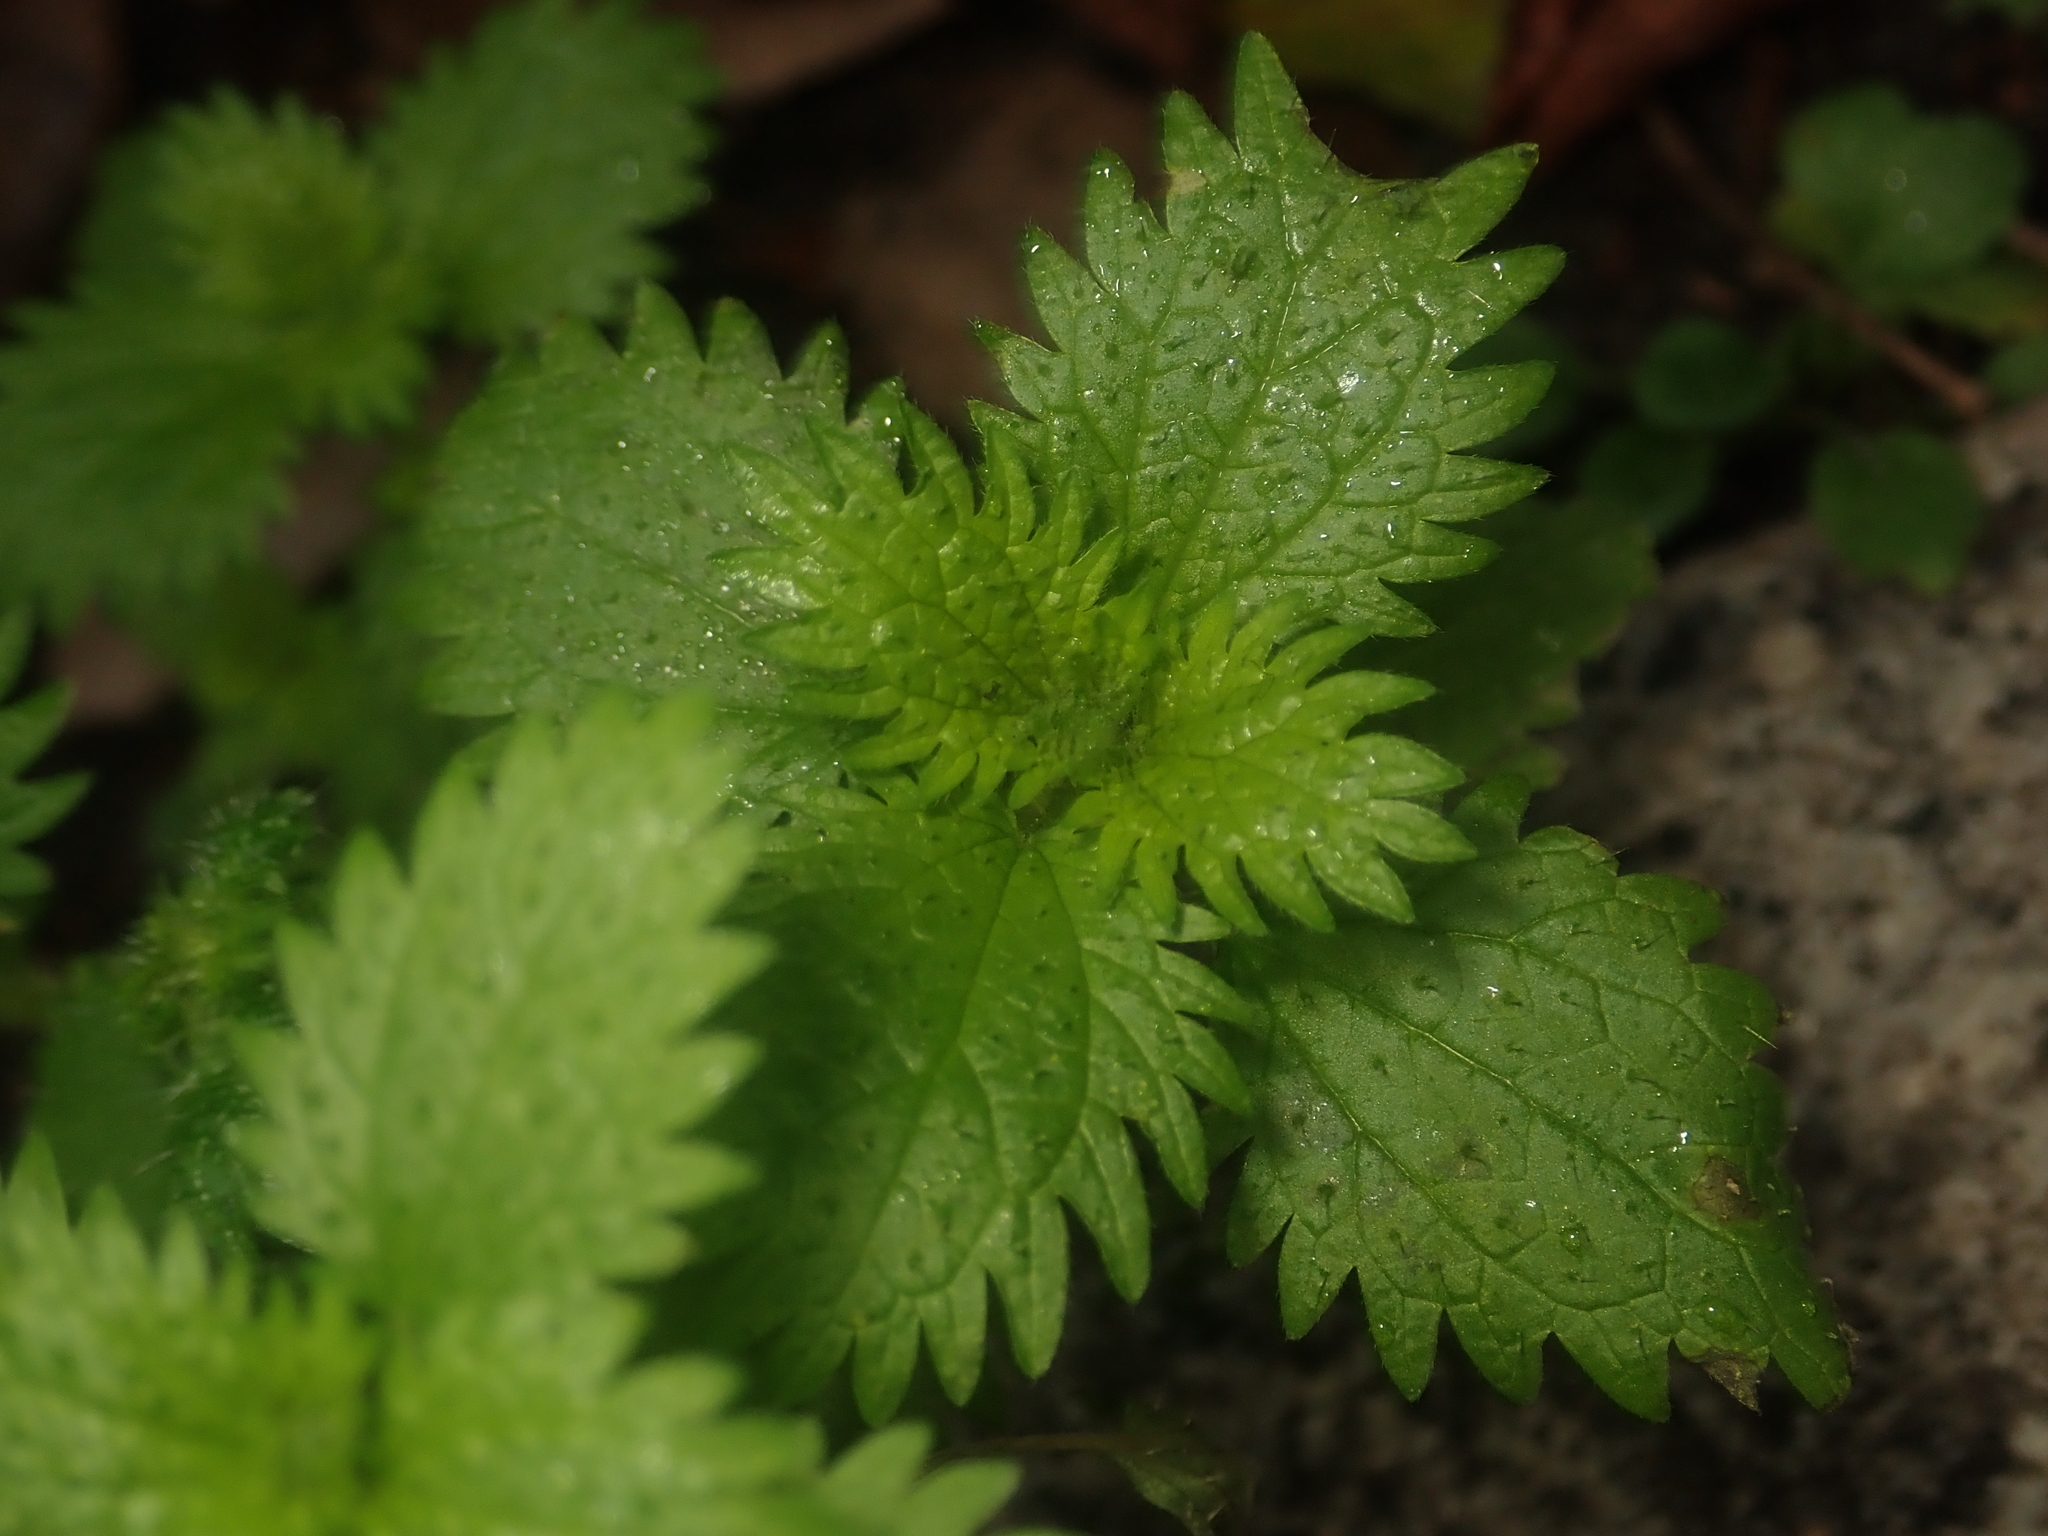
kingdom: Plantae
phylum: Tracheophyta
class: Magnoliopsida
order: Rosales
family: Urticaceae
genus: Urtica
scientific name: Urtica urens
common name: Dwarf nettle
